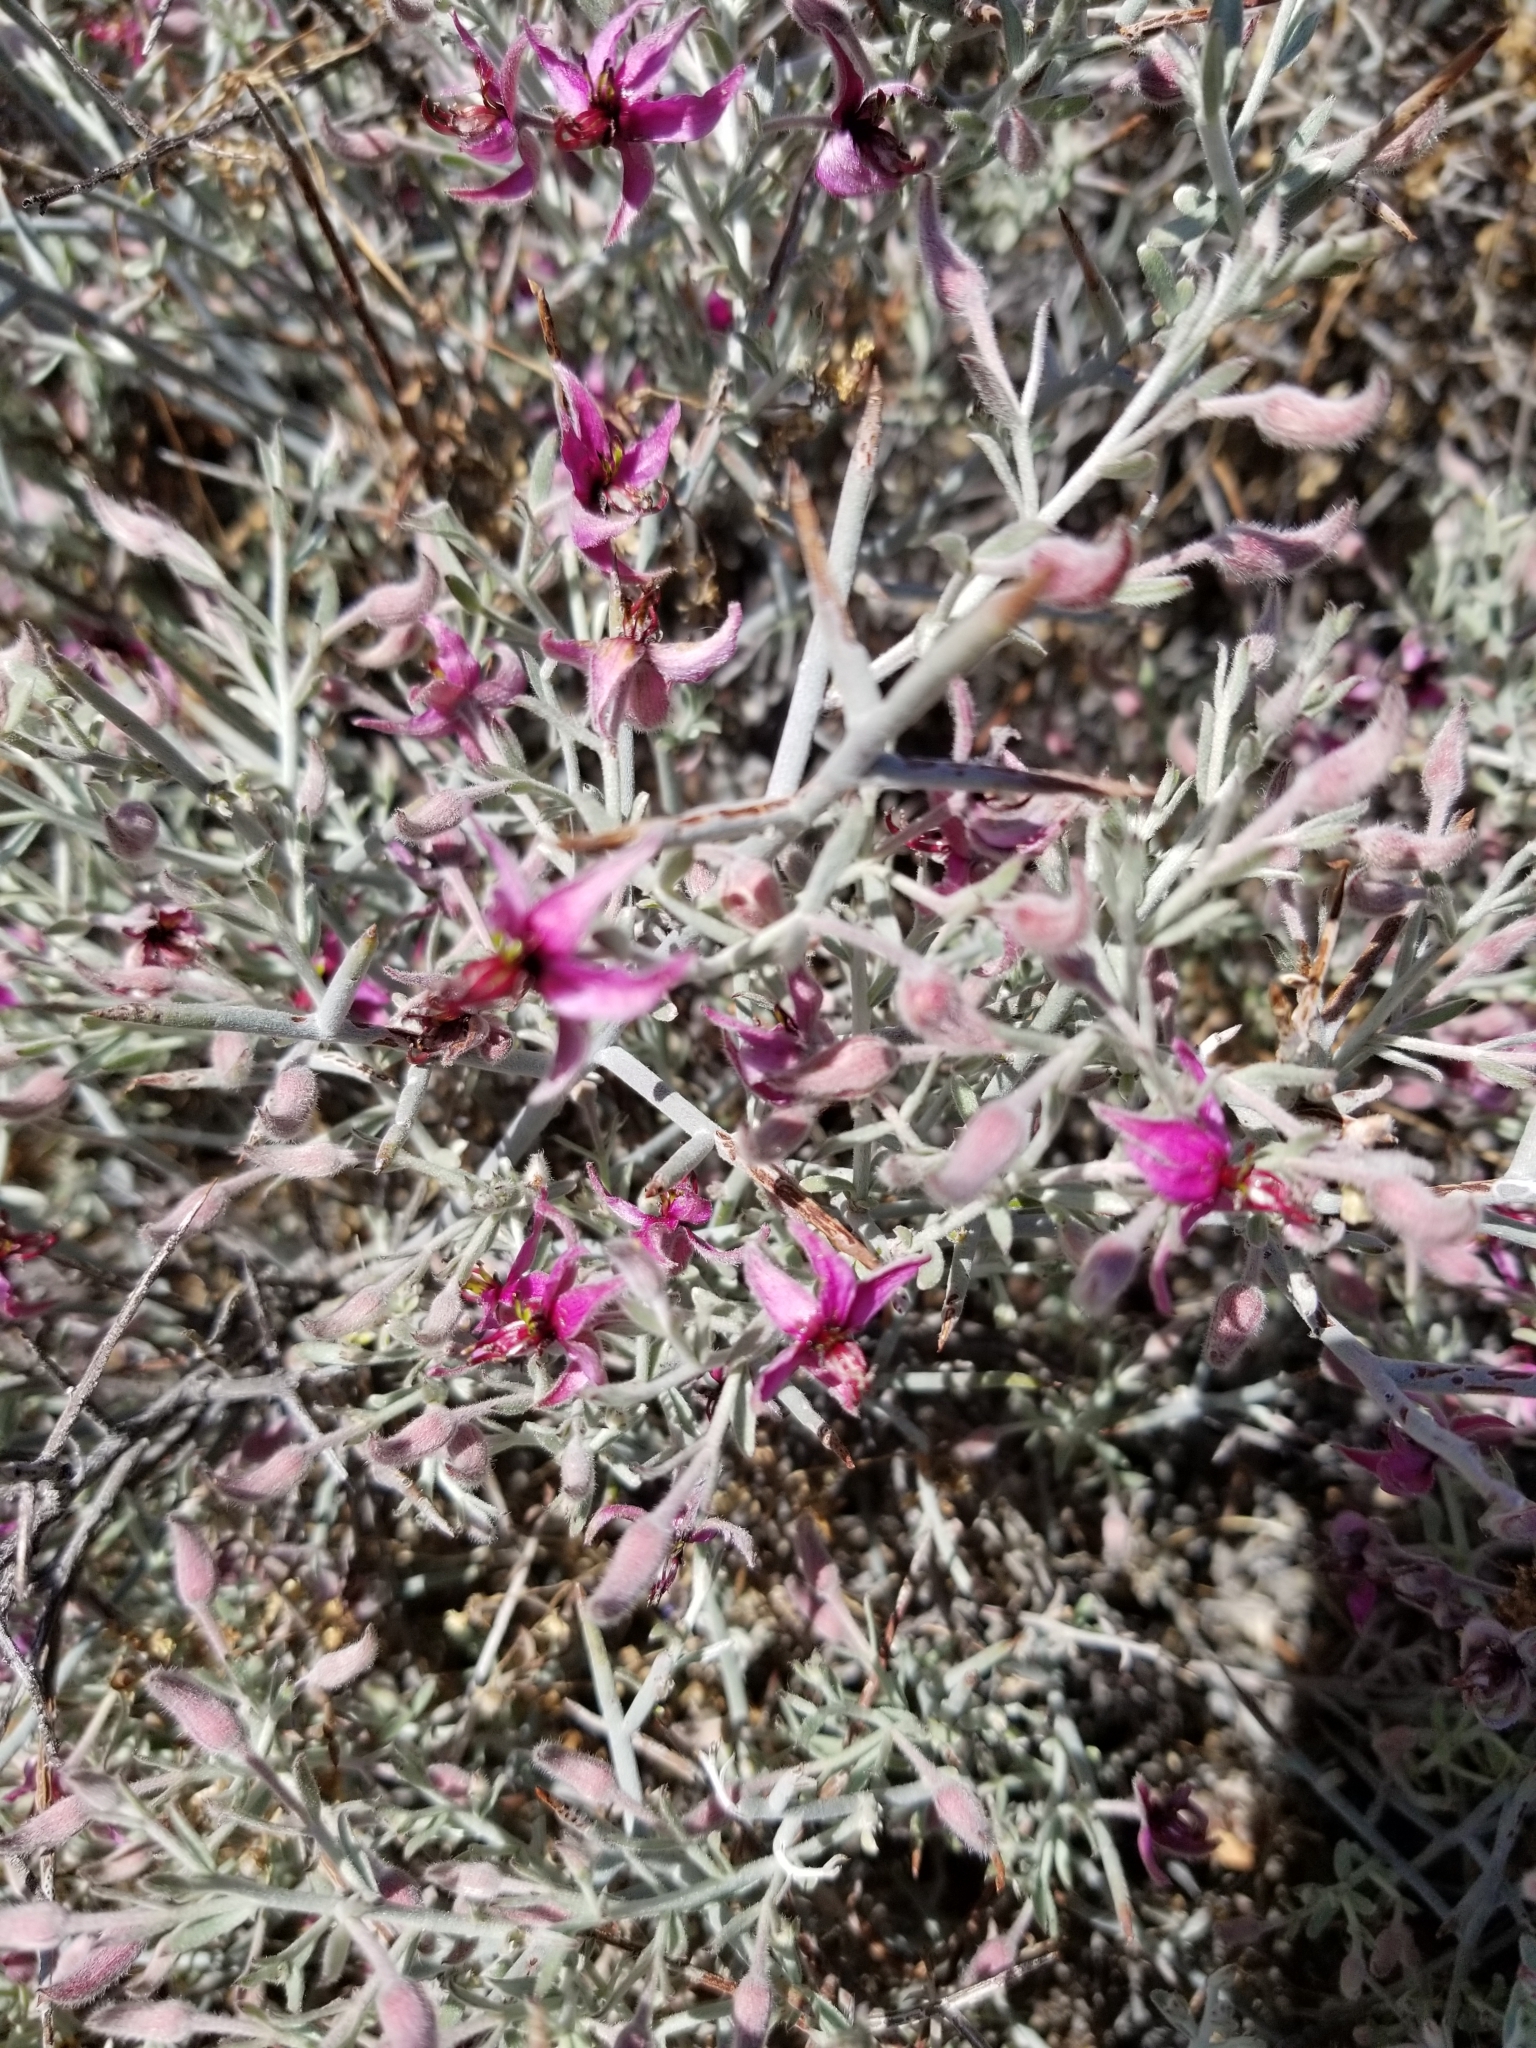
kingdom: Plantae
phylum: Tracheophyta
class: Magnoliopsida
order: Zygophyllales
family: Krameriaceae
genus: Krameria
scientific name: Krameria bicolor
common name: White ratany
